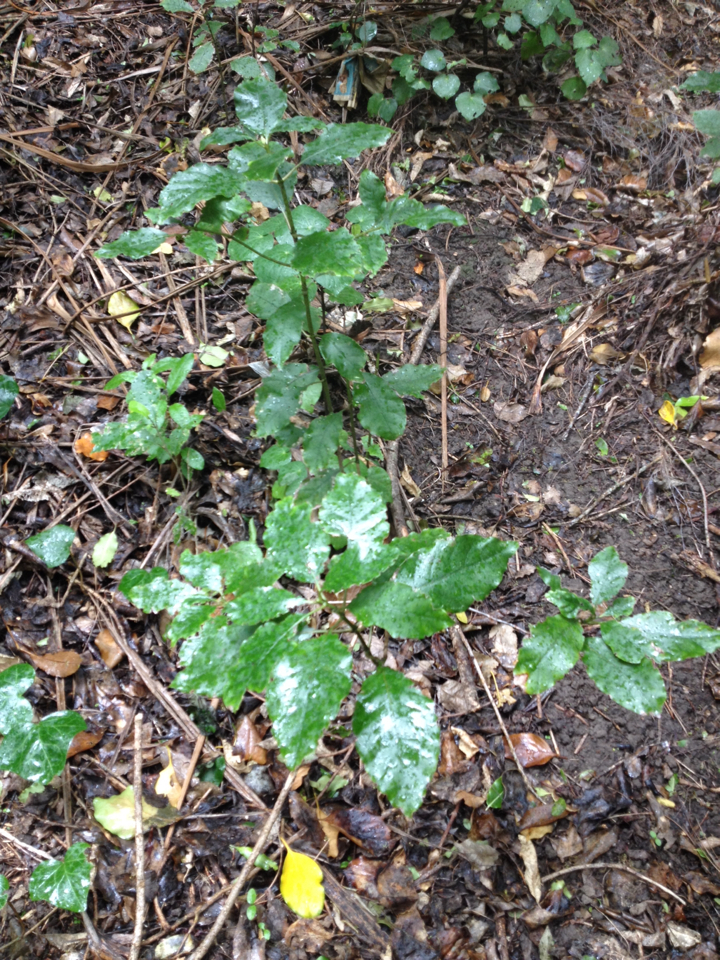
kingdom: Plantae
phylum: Tracheophyta
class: Magnoliopsida
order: Gentianales
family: Rubiaceae
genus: Coprosma
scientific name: Coprosma autumnalis
